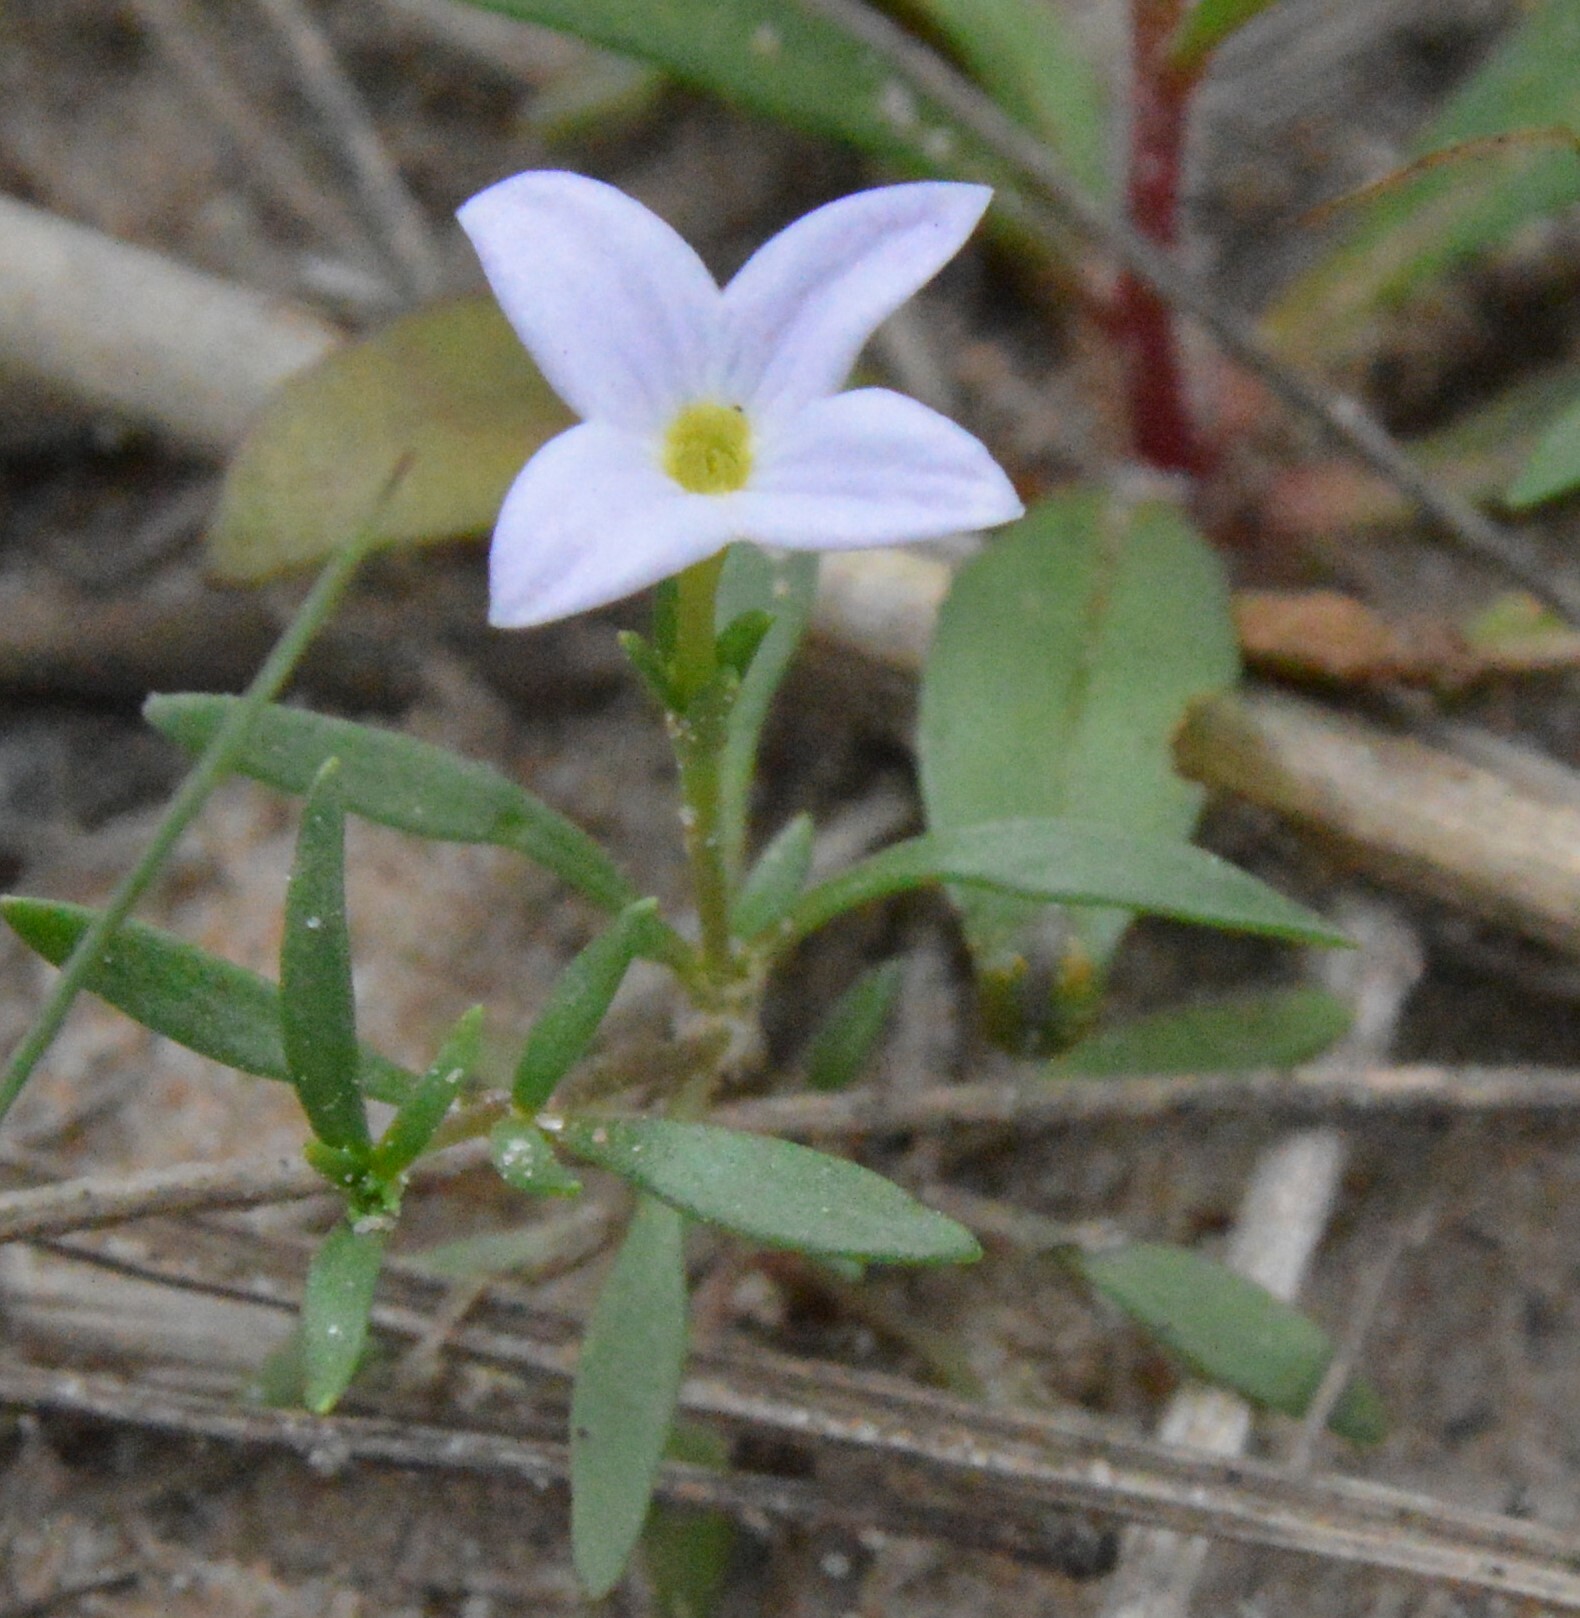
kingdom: Plantae
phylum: Tracheophyta
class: Magnoliopsida
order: Gentianales
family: Rubiaceae
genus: Houstonia
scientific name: Houstonia rosea
